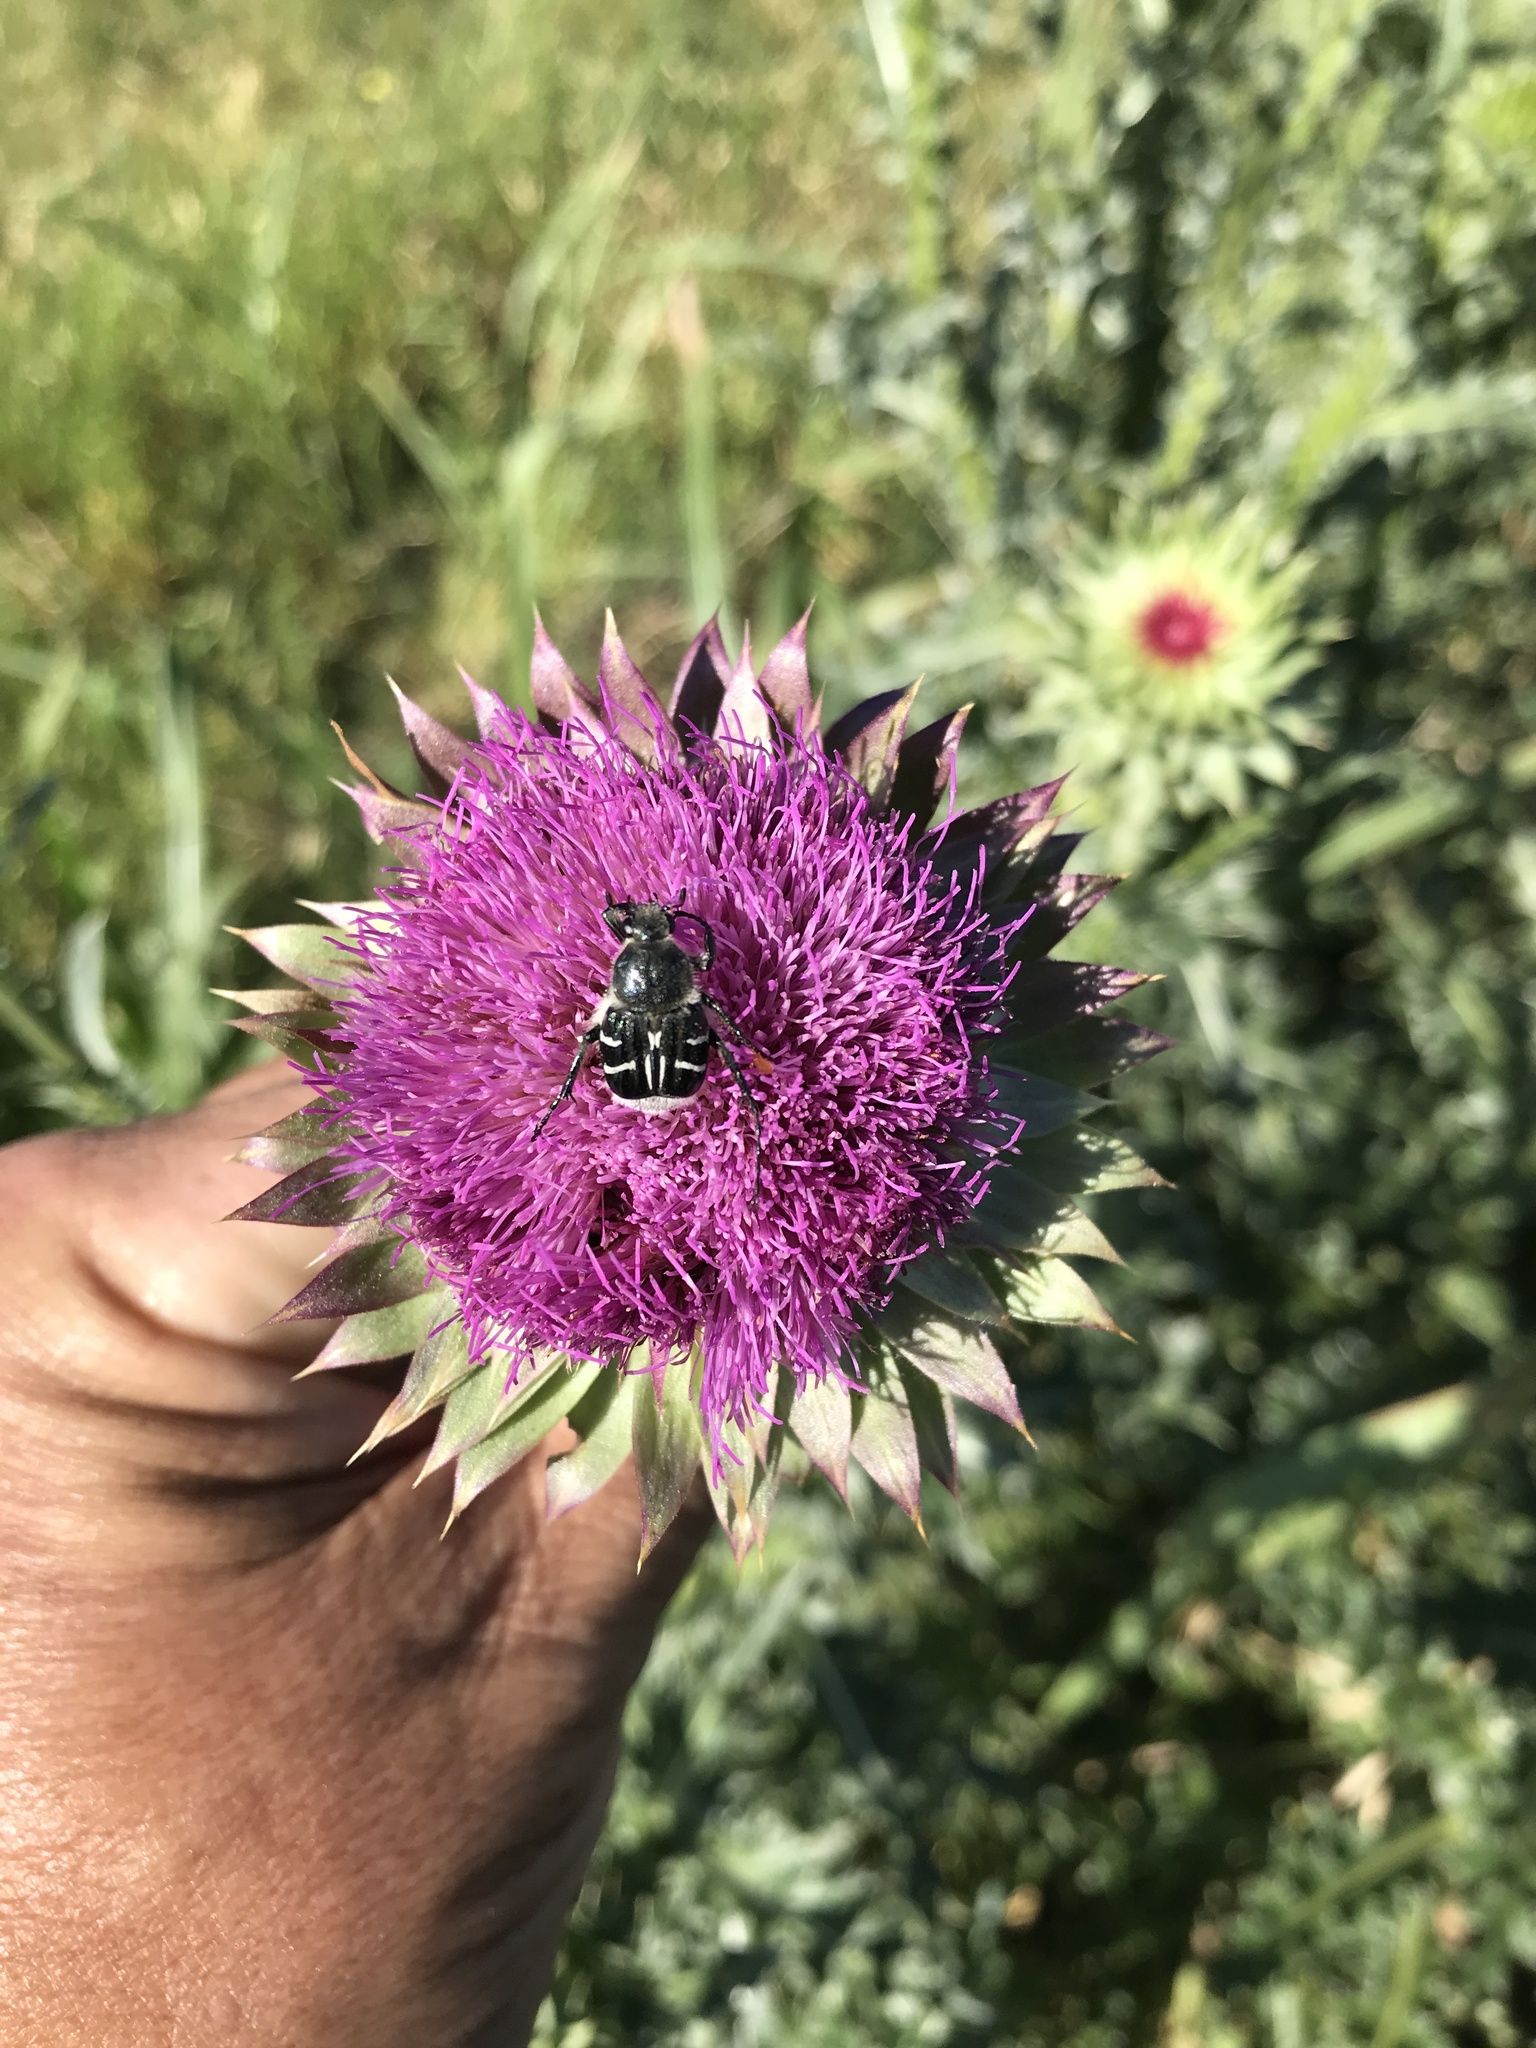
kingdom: Animalia
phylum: Arthropoda
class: Insecta
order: Coleoptera
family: Scarabaeidae
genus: Trichiotinus
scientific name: Trichiotinus texanus
